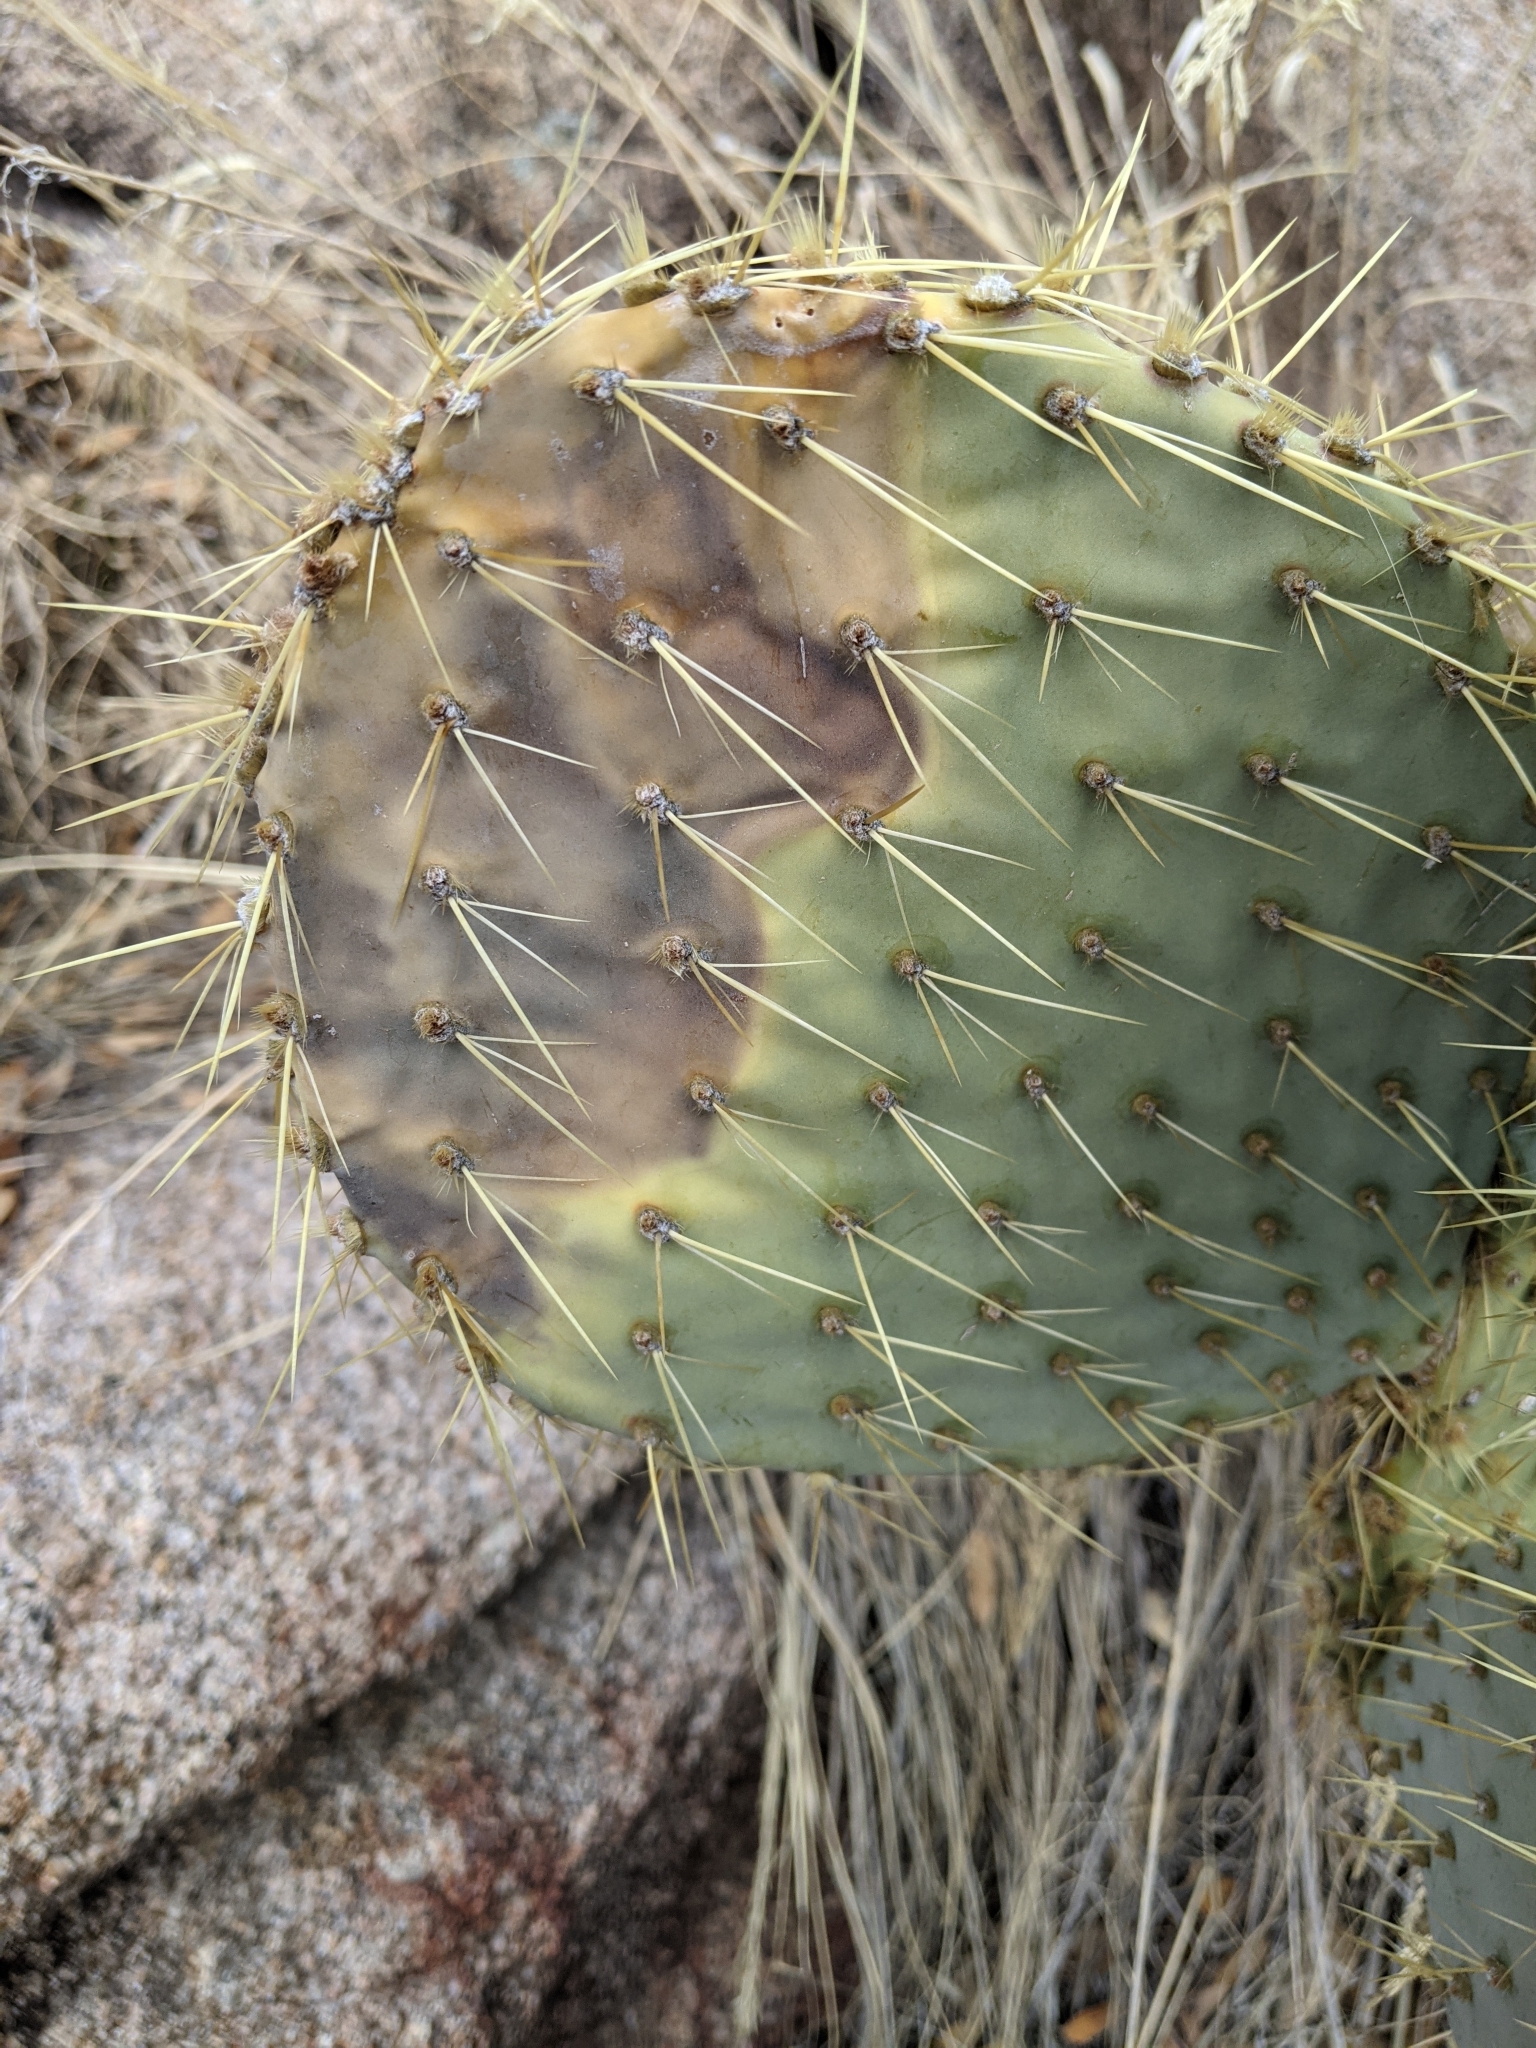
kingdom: Plantae
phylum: Tracheophyta
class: Magnoliopsida
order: Caryophyllales
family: Cactaceae
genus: Opuntia
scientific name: Opuntia chlorotica
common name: Dollar-joint prickly-pear
